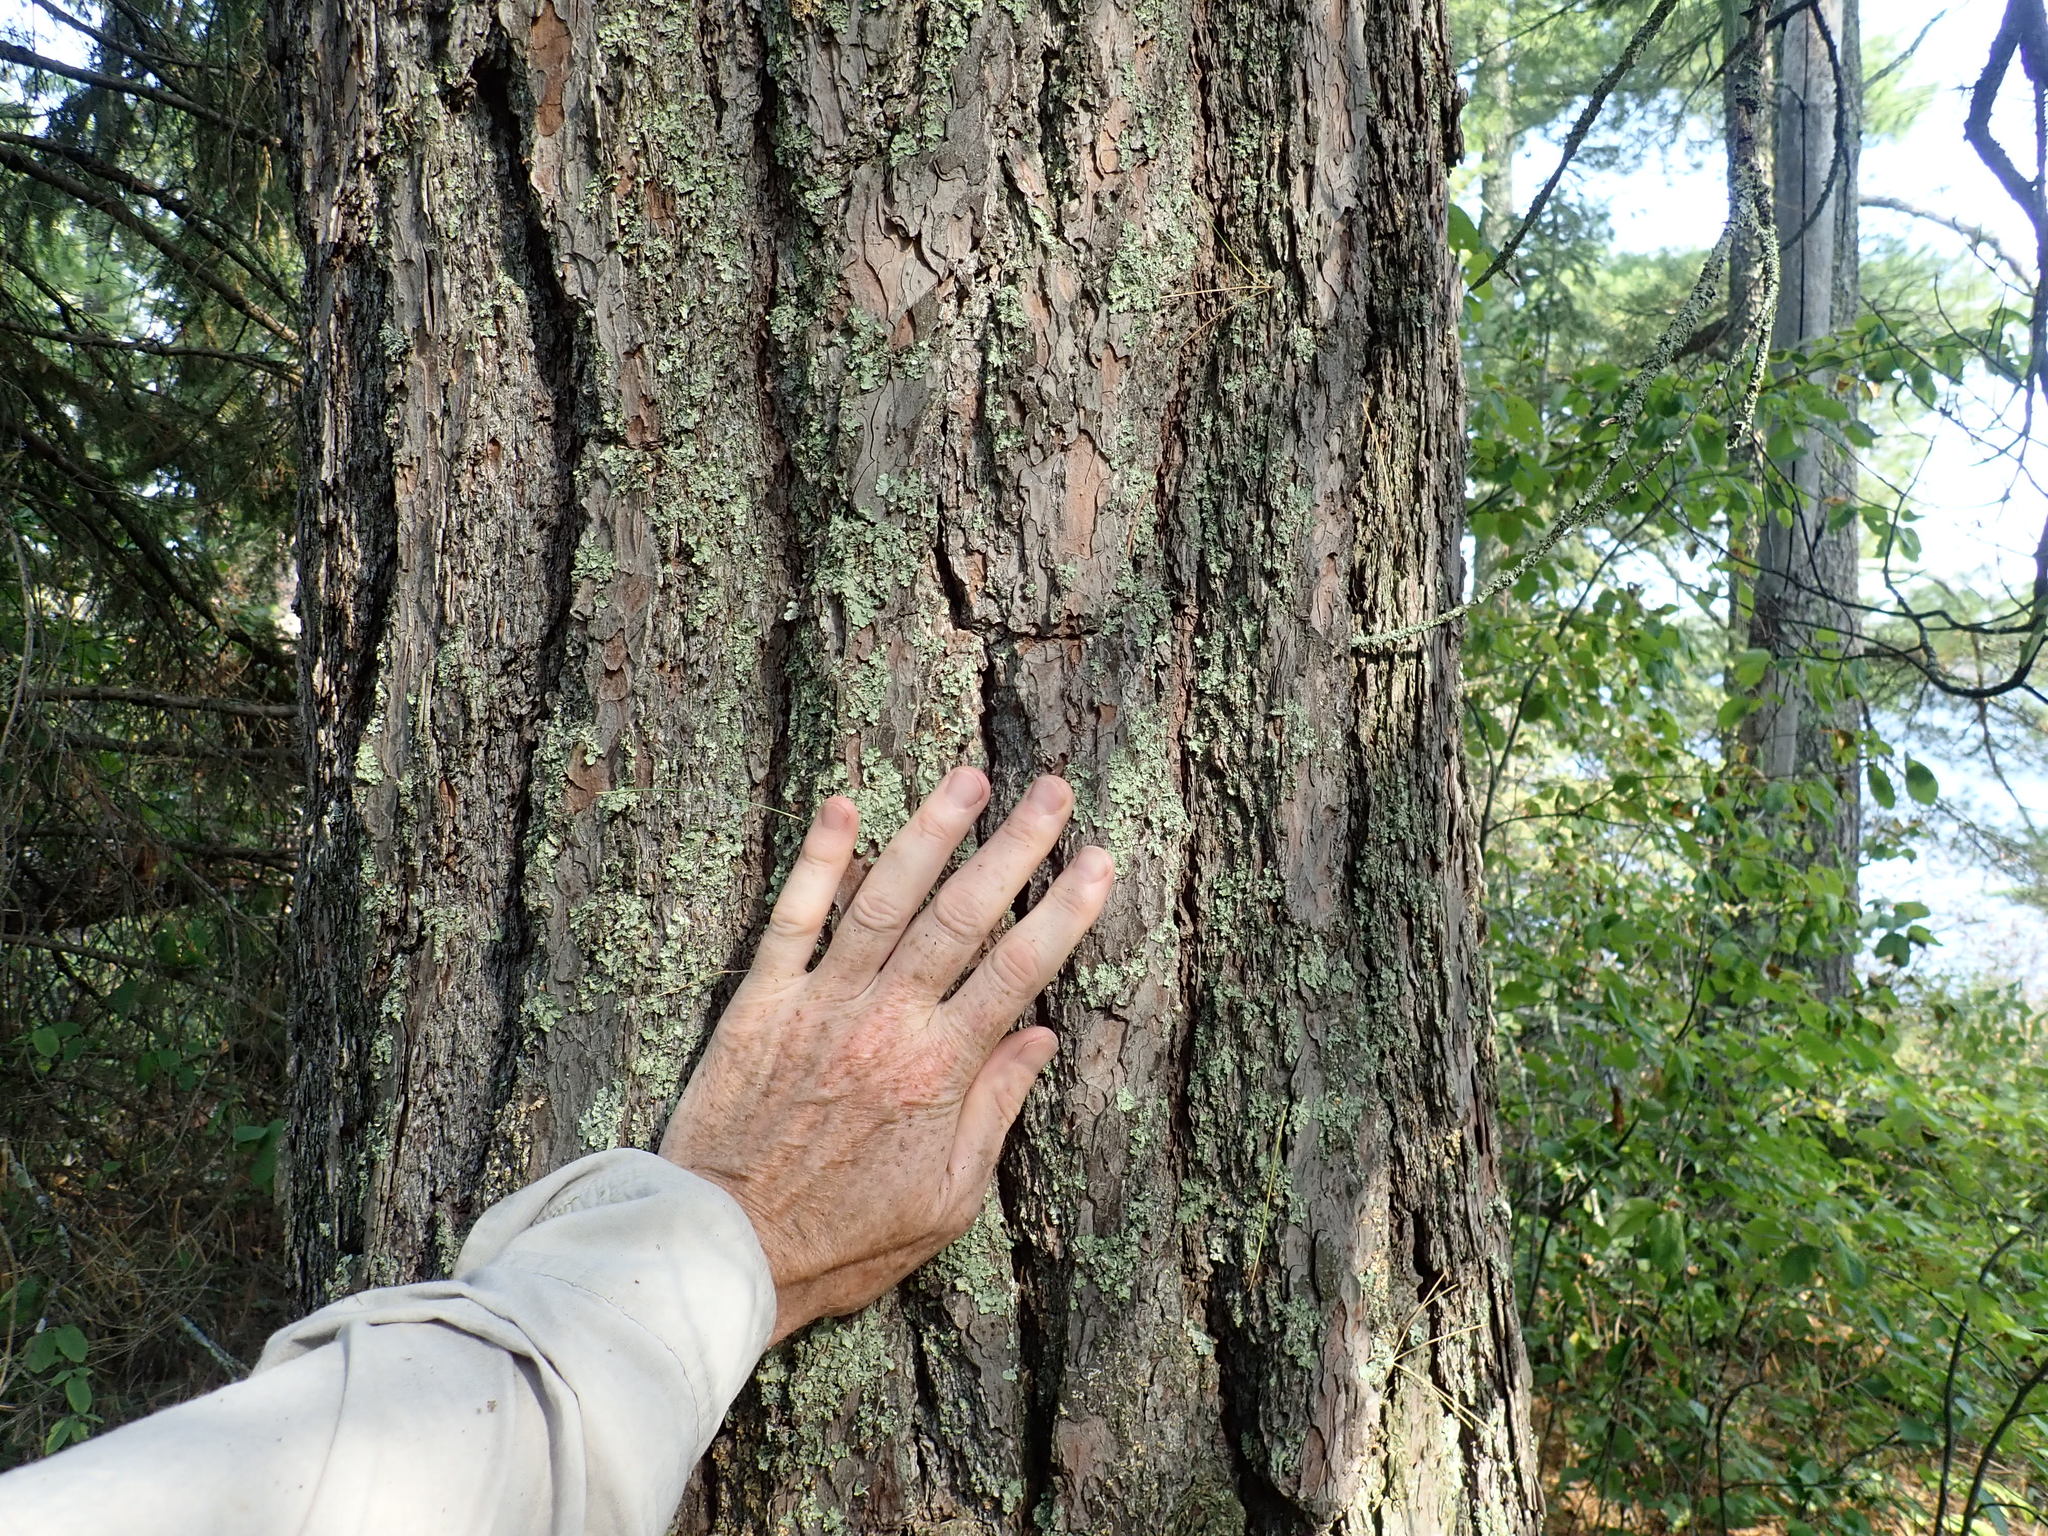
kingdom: Plantae
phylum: Tracheophyta
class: Pinopsida
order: Pinales
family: Pinaceae
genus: Pinus
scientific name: Pinus strobus
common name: Weymouth pine
